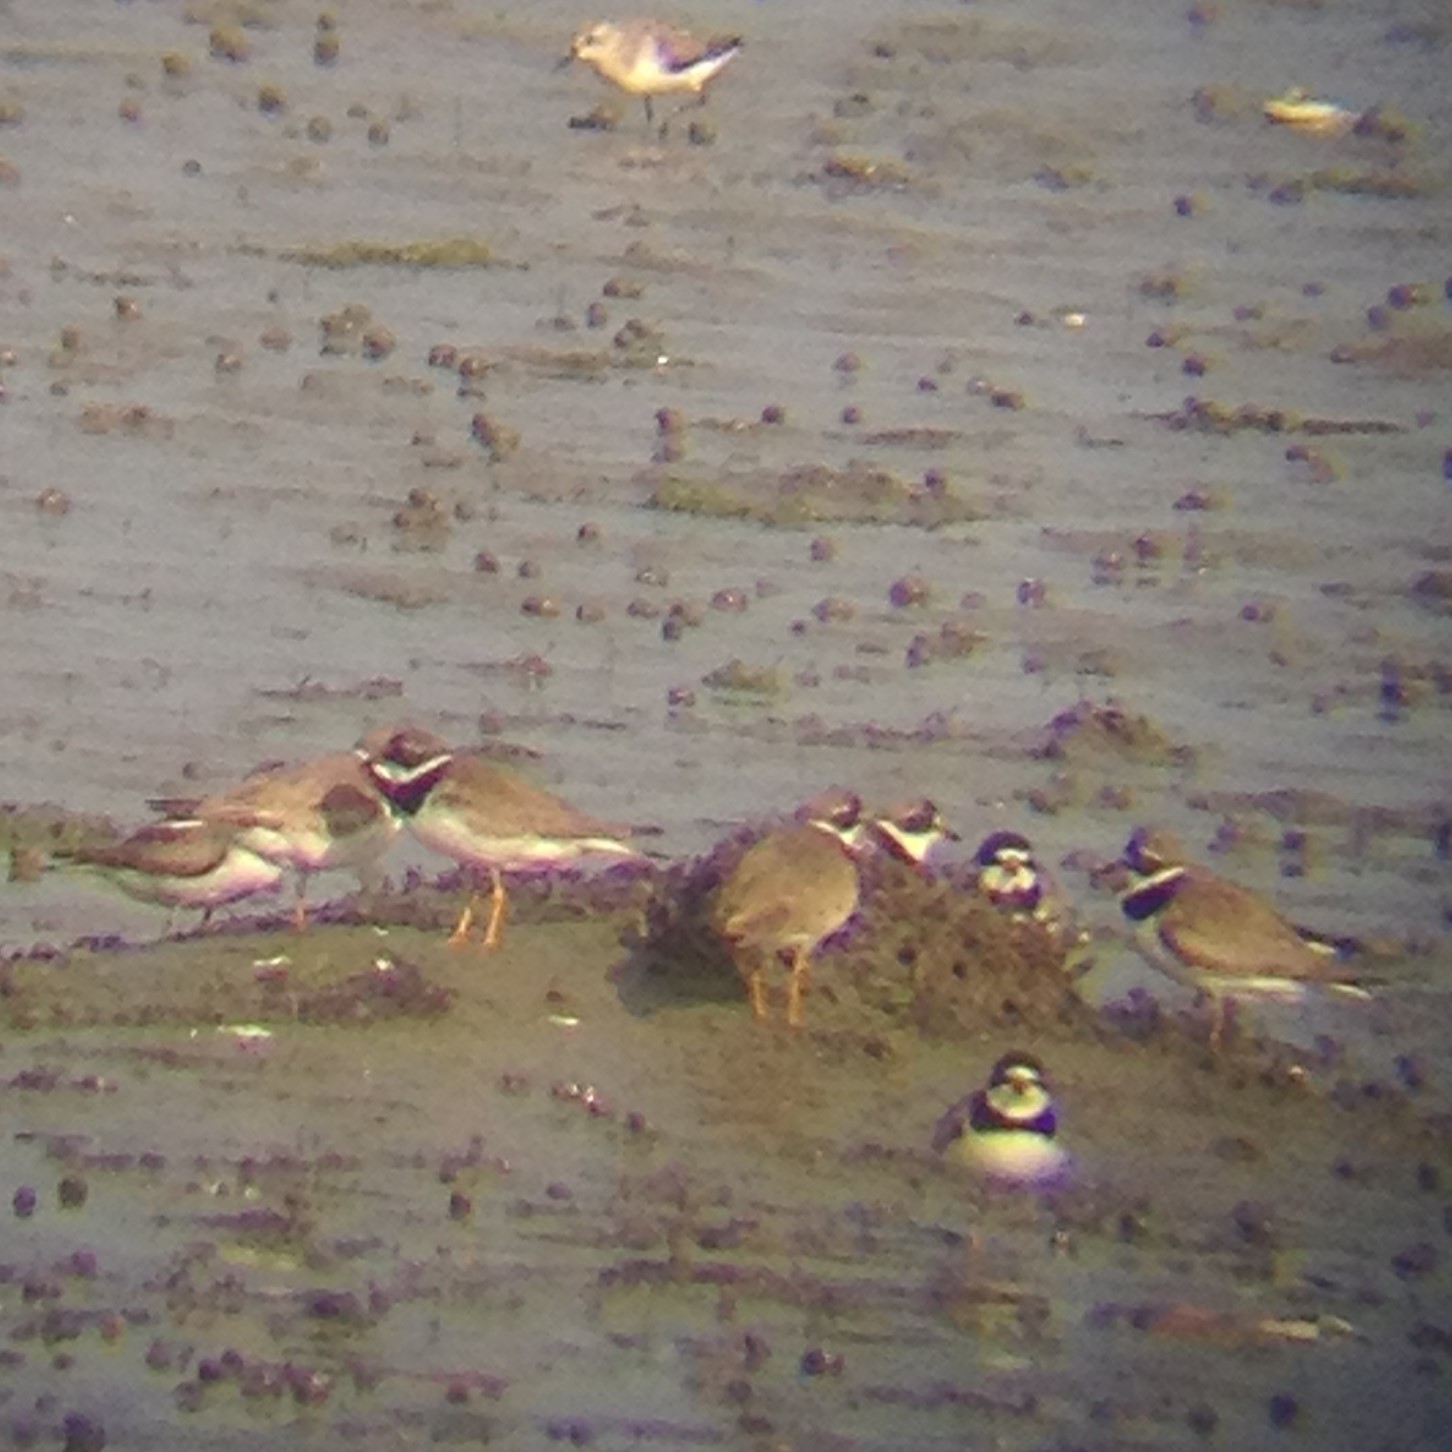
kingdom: Animalia
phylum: Chordata
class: Aves
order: Charadriiformes
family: Charadriidae
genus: Charadrius
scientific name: Charadrius semipalmatus
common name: Semipalmated plover
